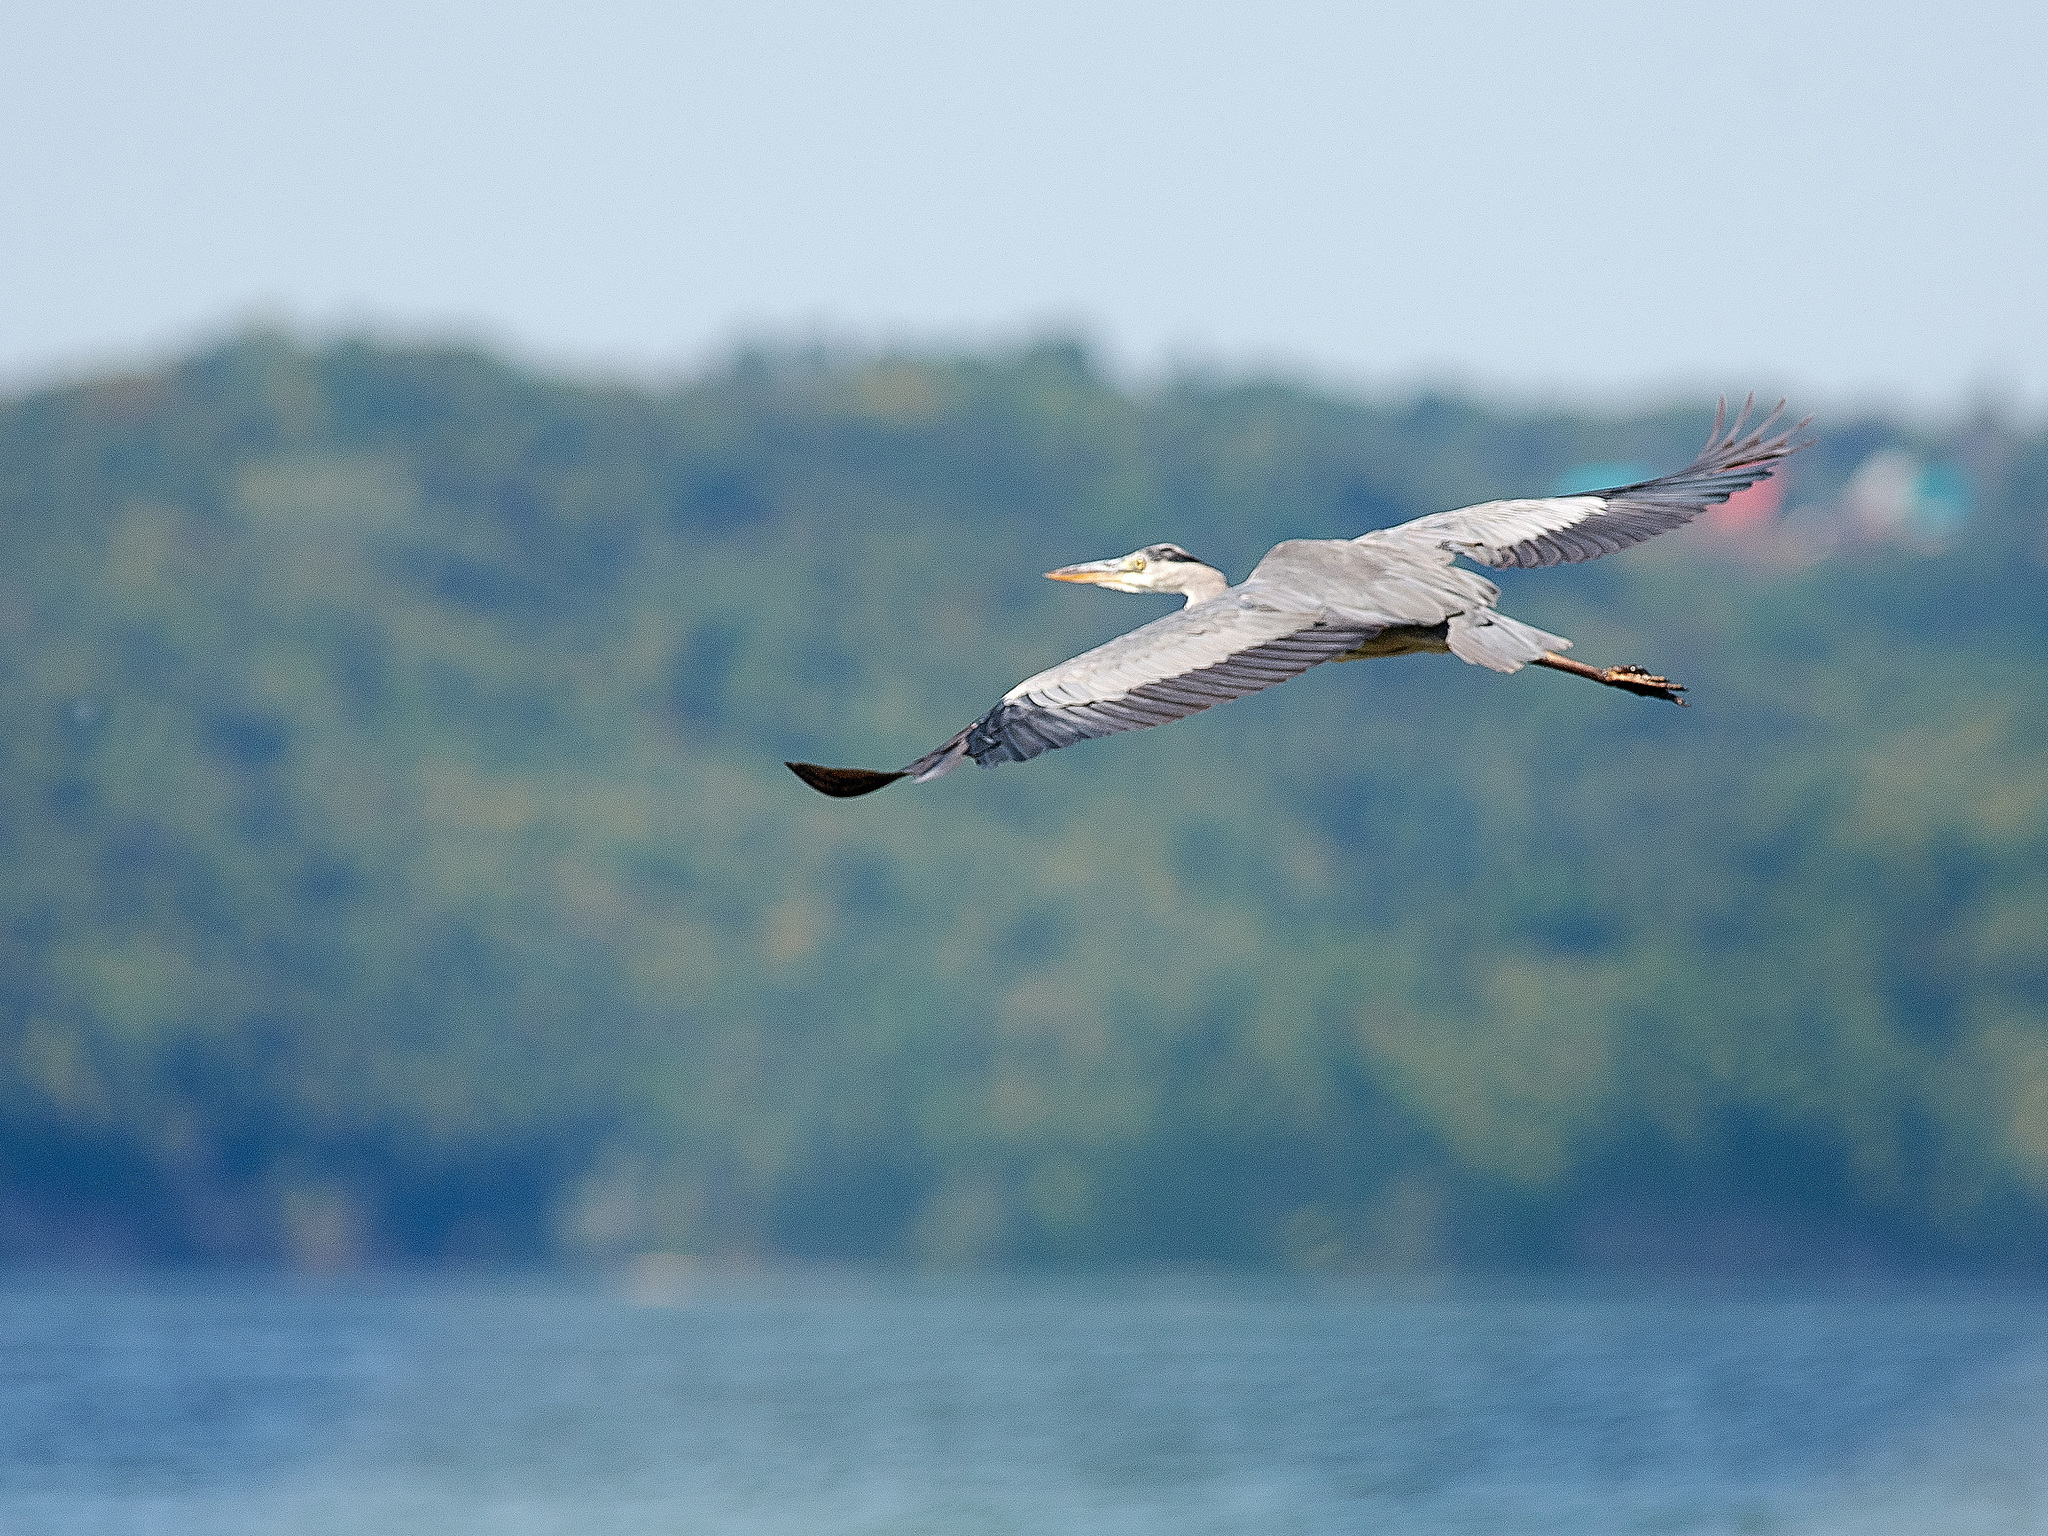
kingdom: Animalia
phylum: Chordata
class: Aves
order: Pelecaniformes
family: Ardeidae
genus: Ardea
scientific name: Ardea cinerea
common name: Grey heron
